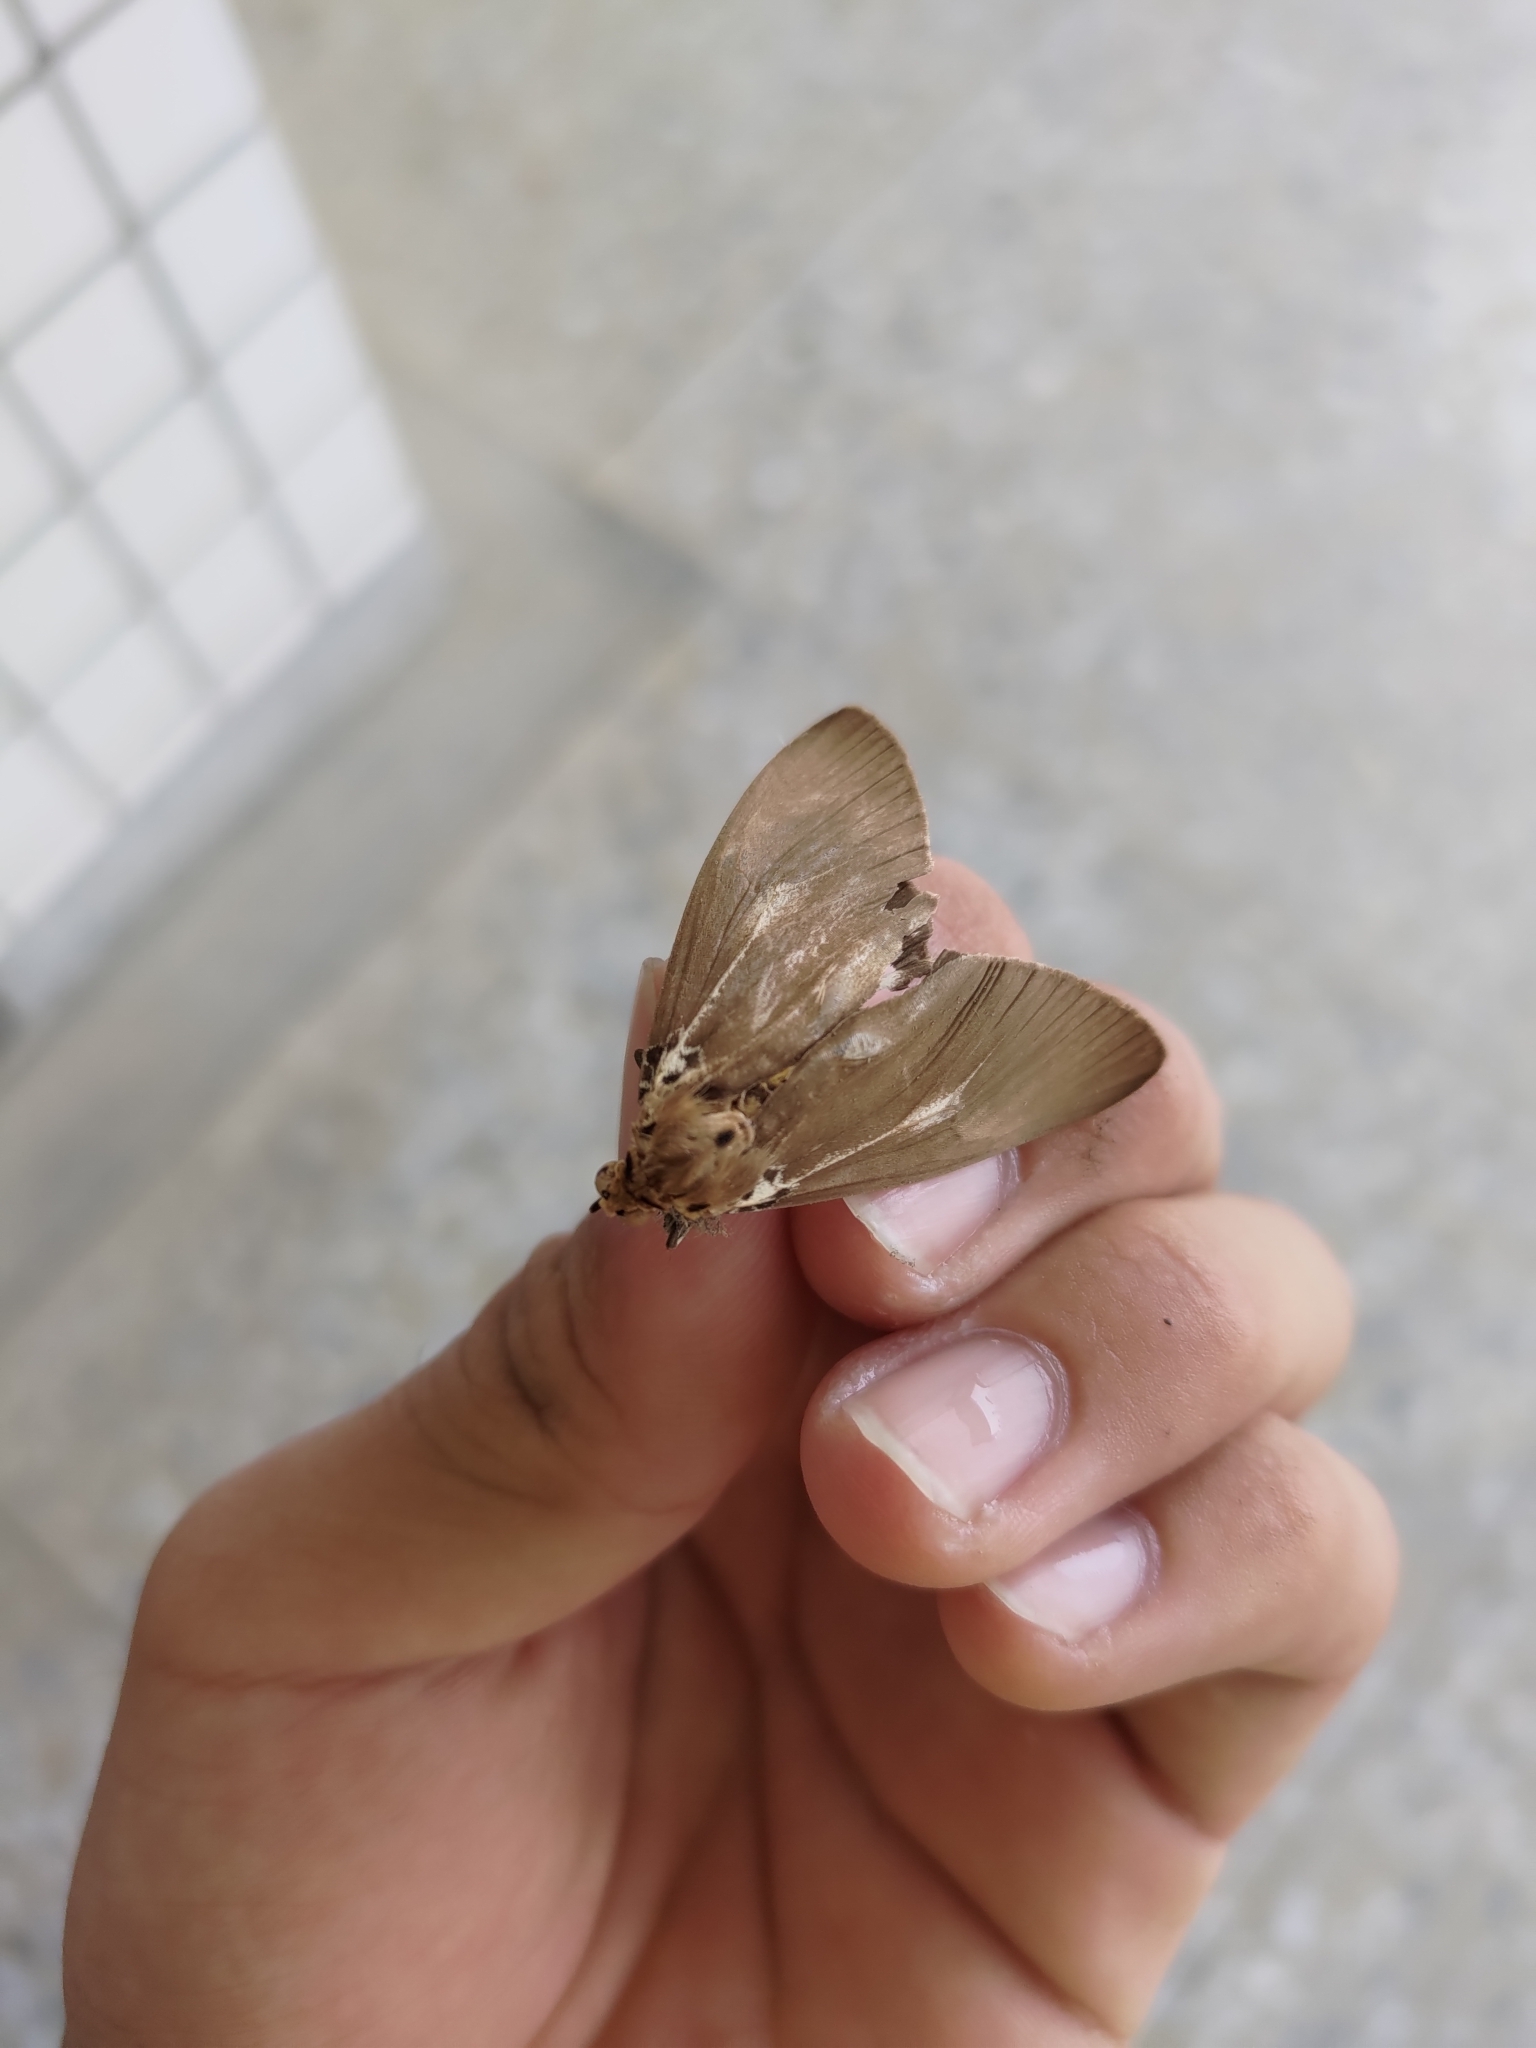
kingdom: Animalia
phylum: Arthropoda
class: Insecta
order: Lepidoptera
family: Erebidae
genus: Asota
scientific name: Asota heliconia
